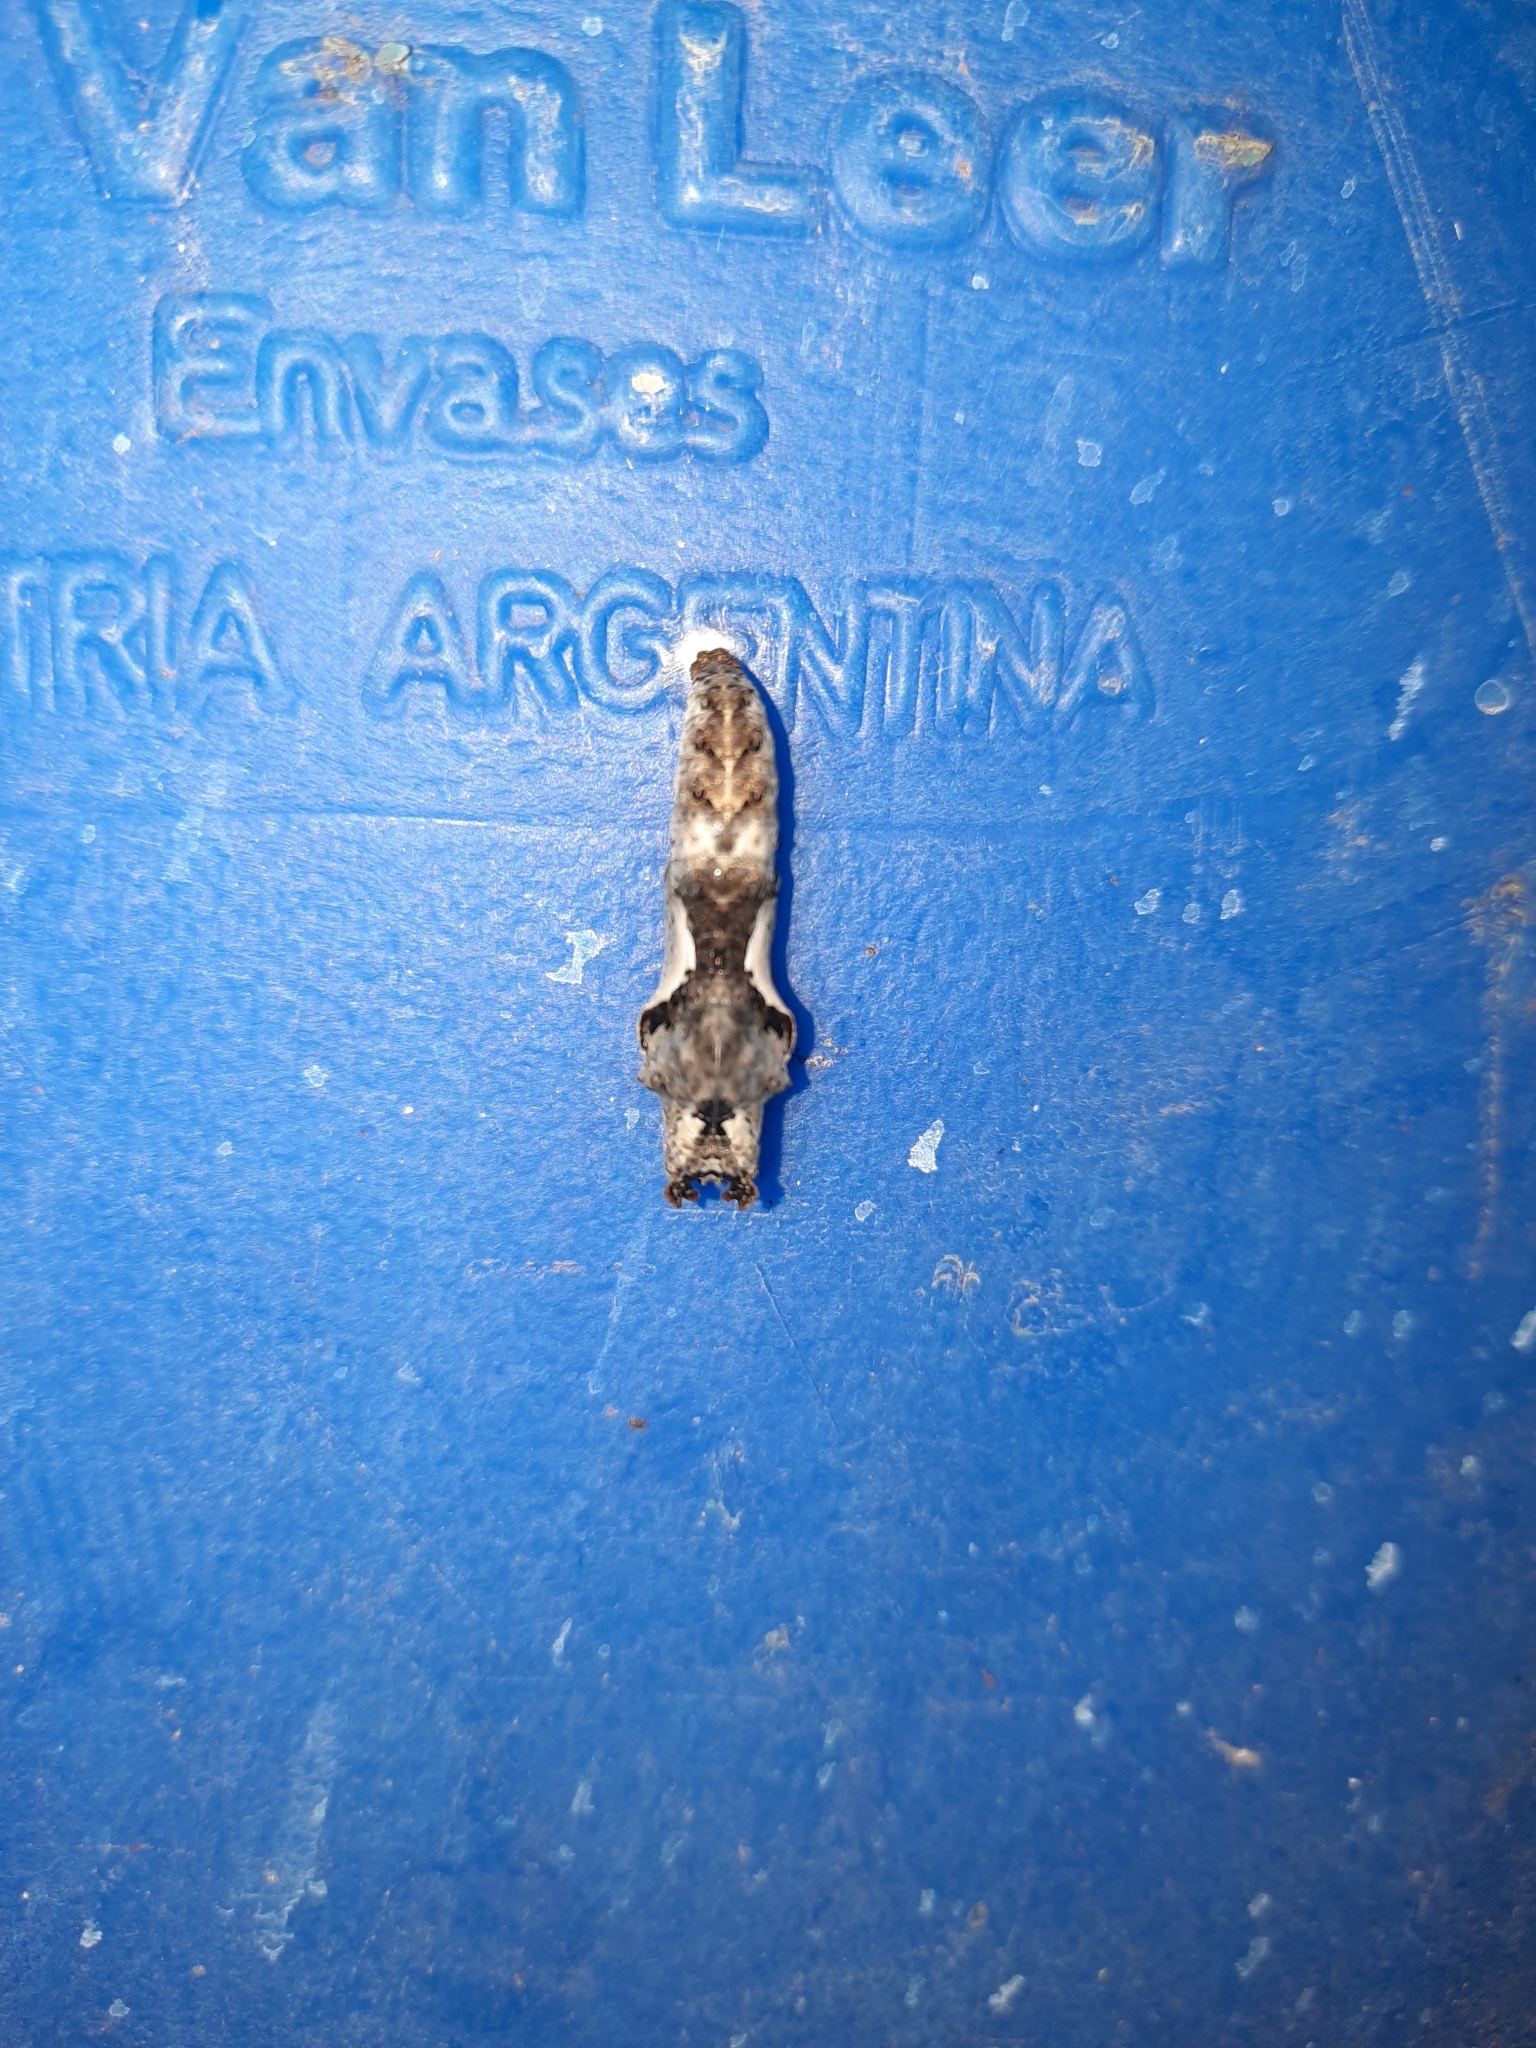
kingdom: Animalia
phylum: Arthropoda
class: Insecta
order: Lepidoptera
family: Nymphalidae
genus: Dione
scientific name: Dione vanillae
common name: Gulf fritillary
